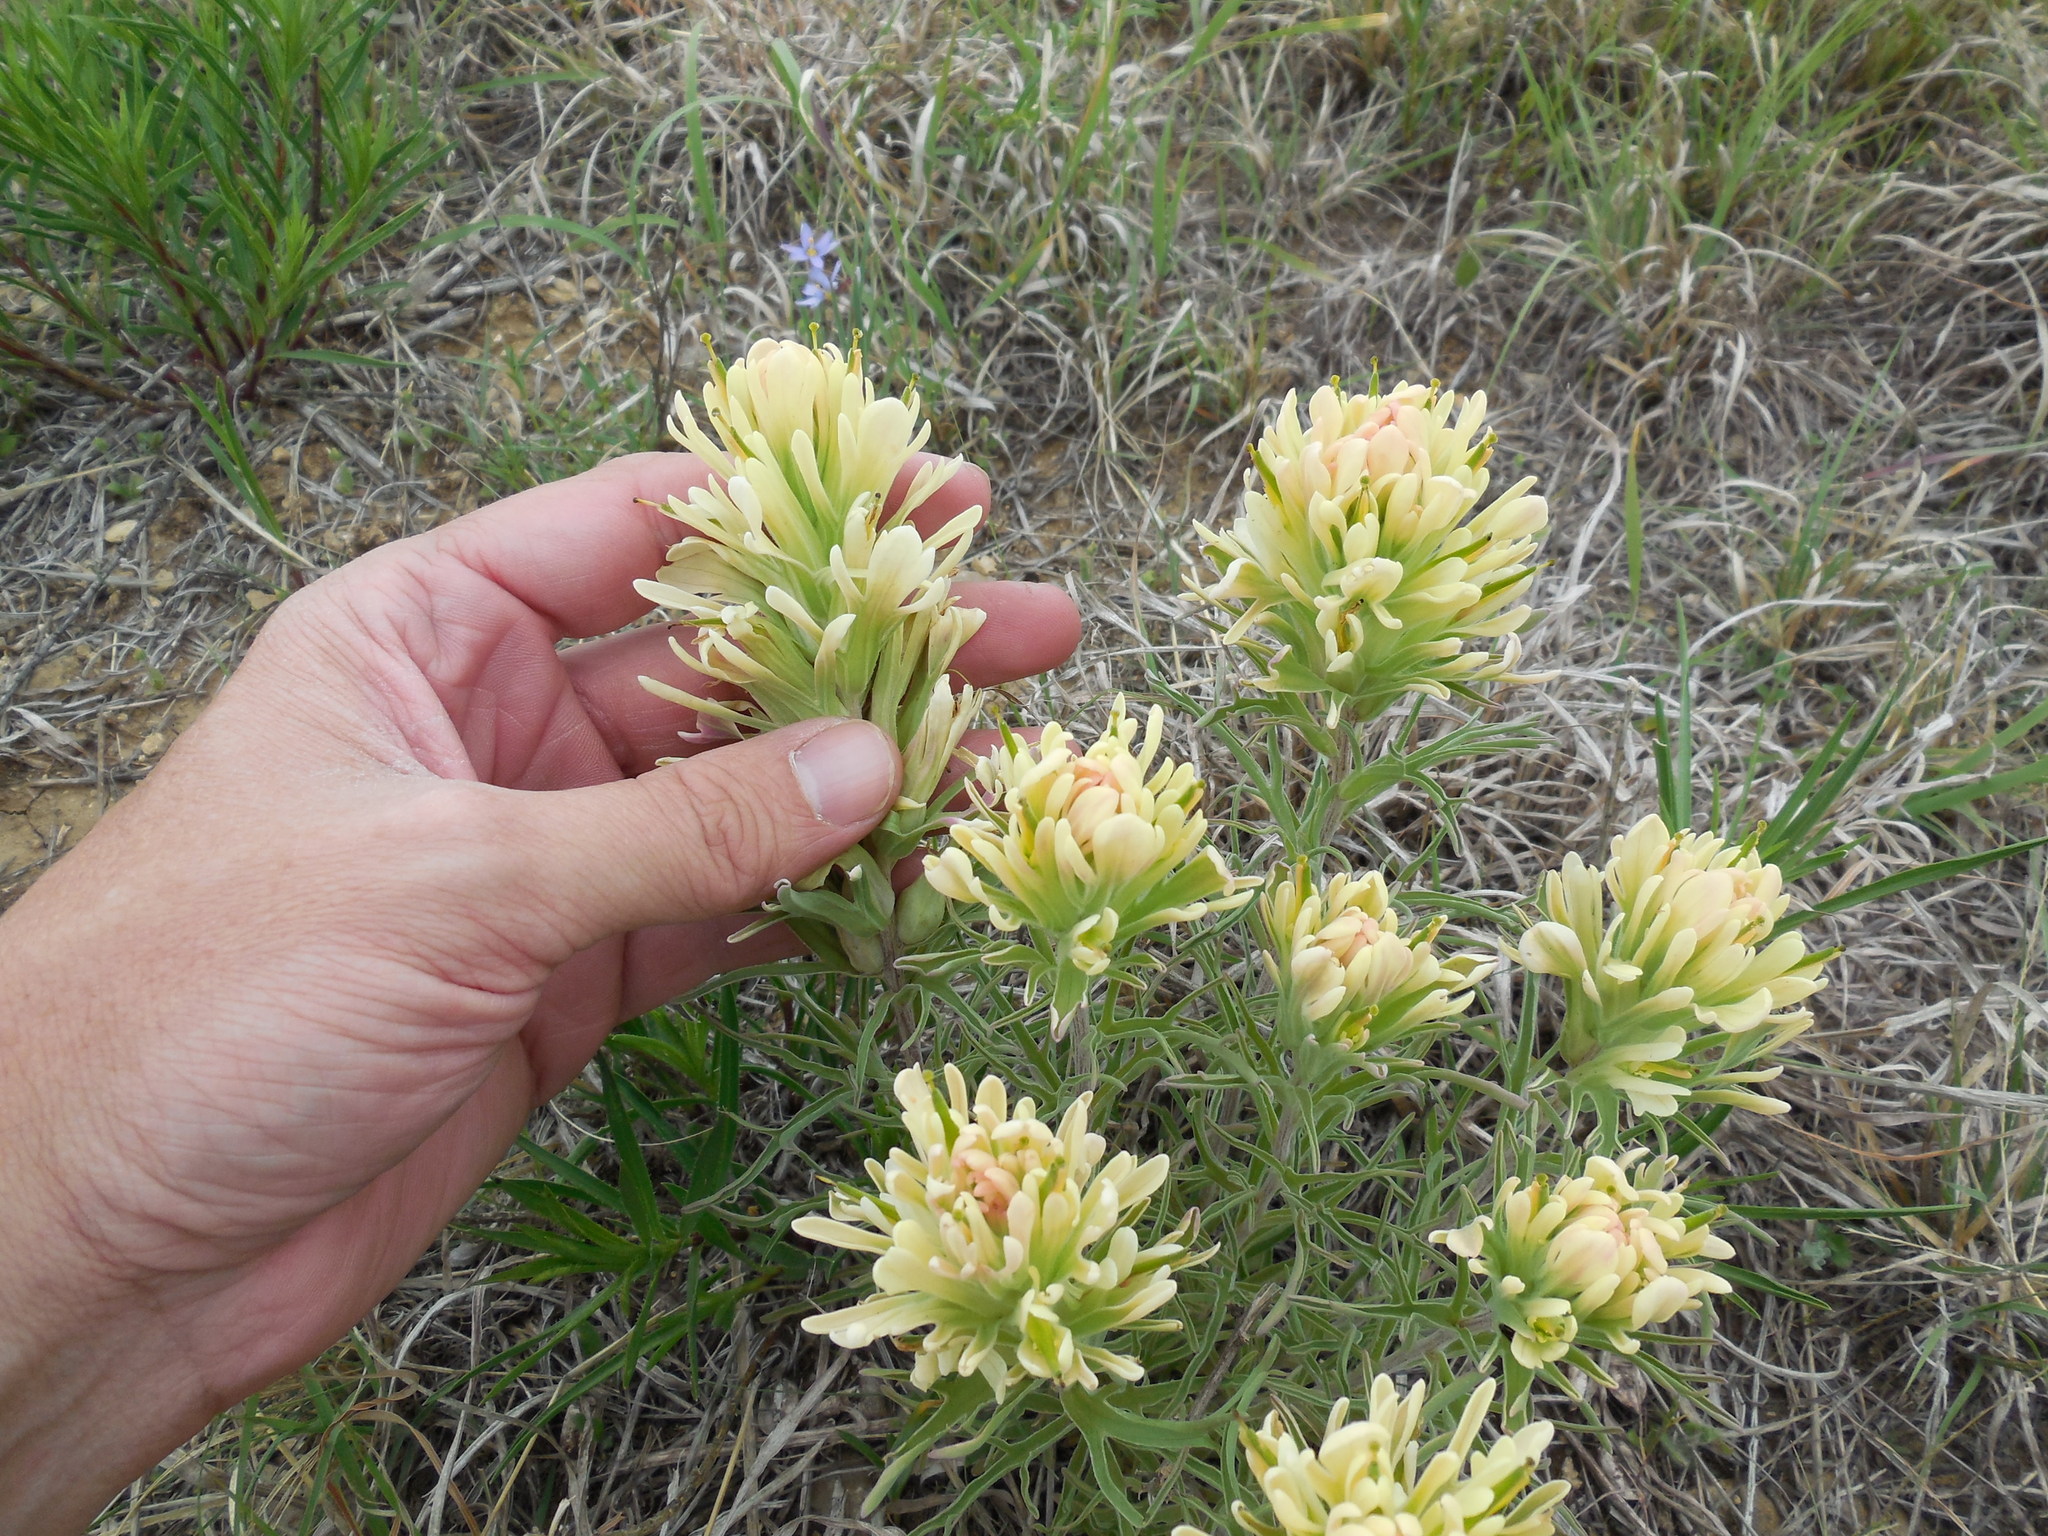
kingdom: Plantae
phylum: Tracheophyta
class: Magnoliopsida
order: Lamiales
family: Orobanchaceae
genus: Castilleja
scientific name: Castilleja citrina
